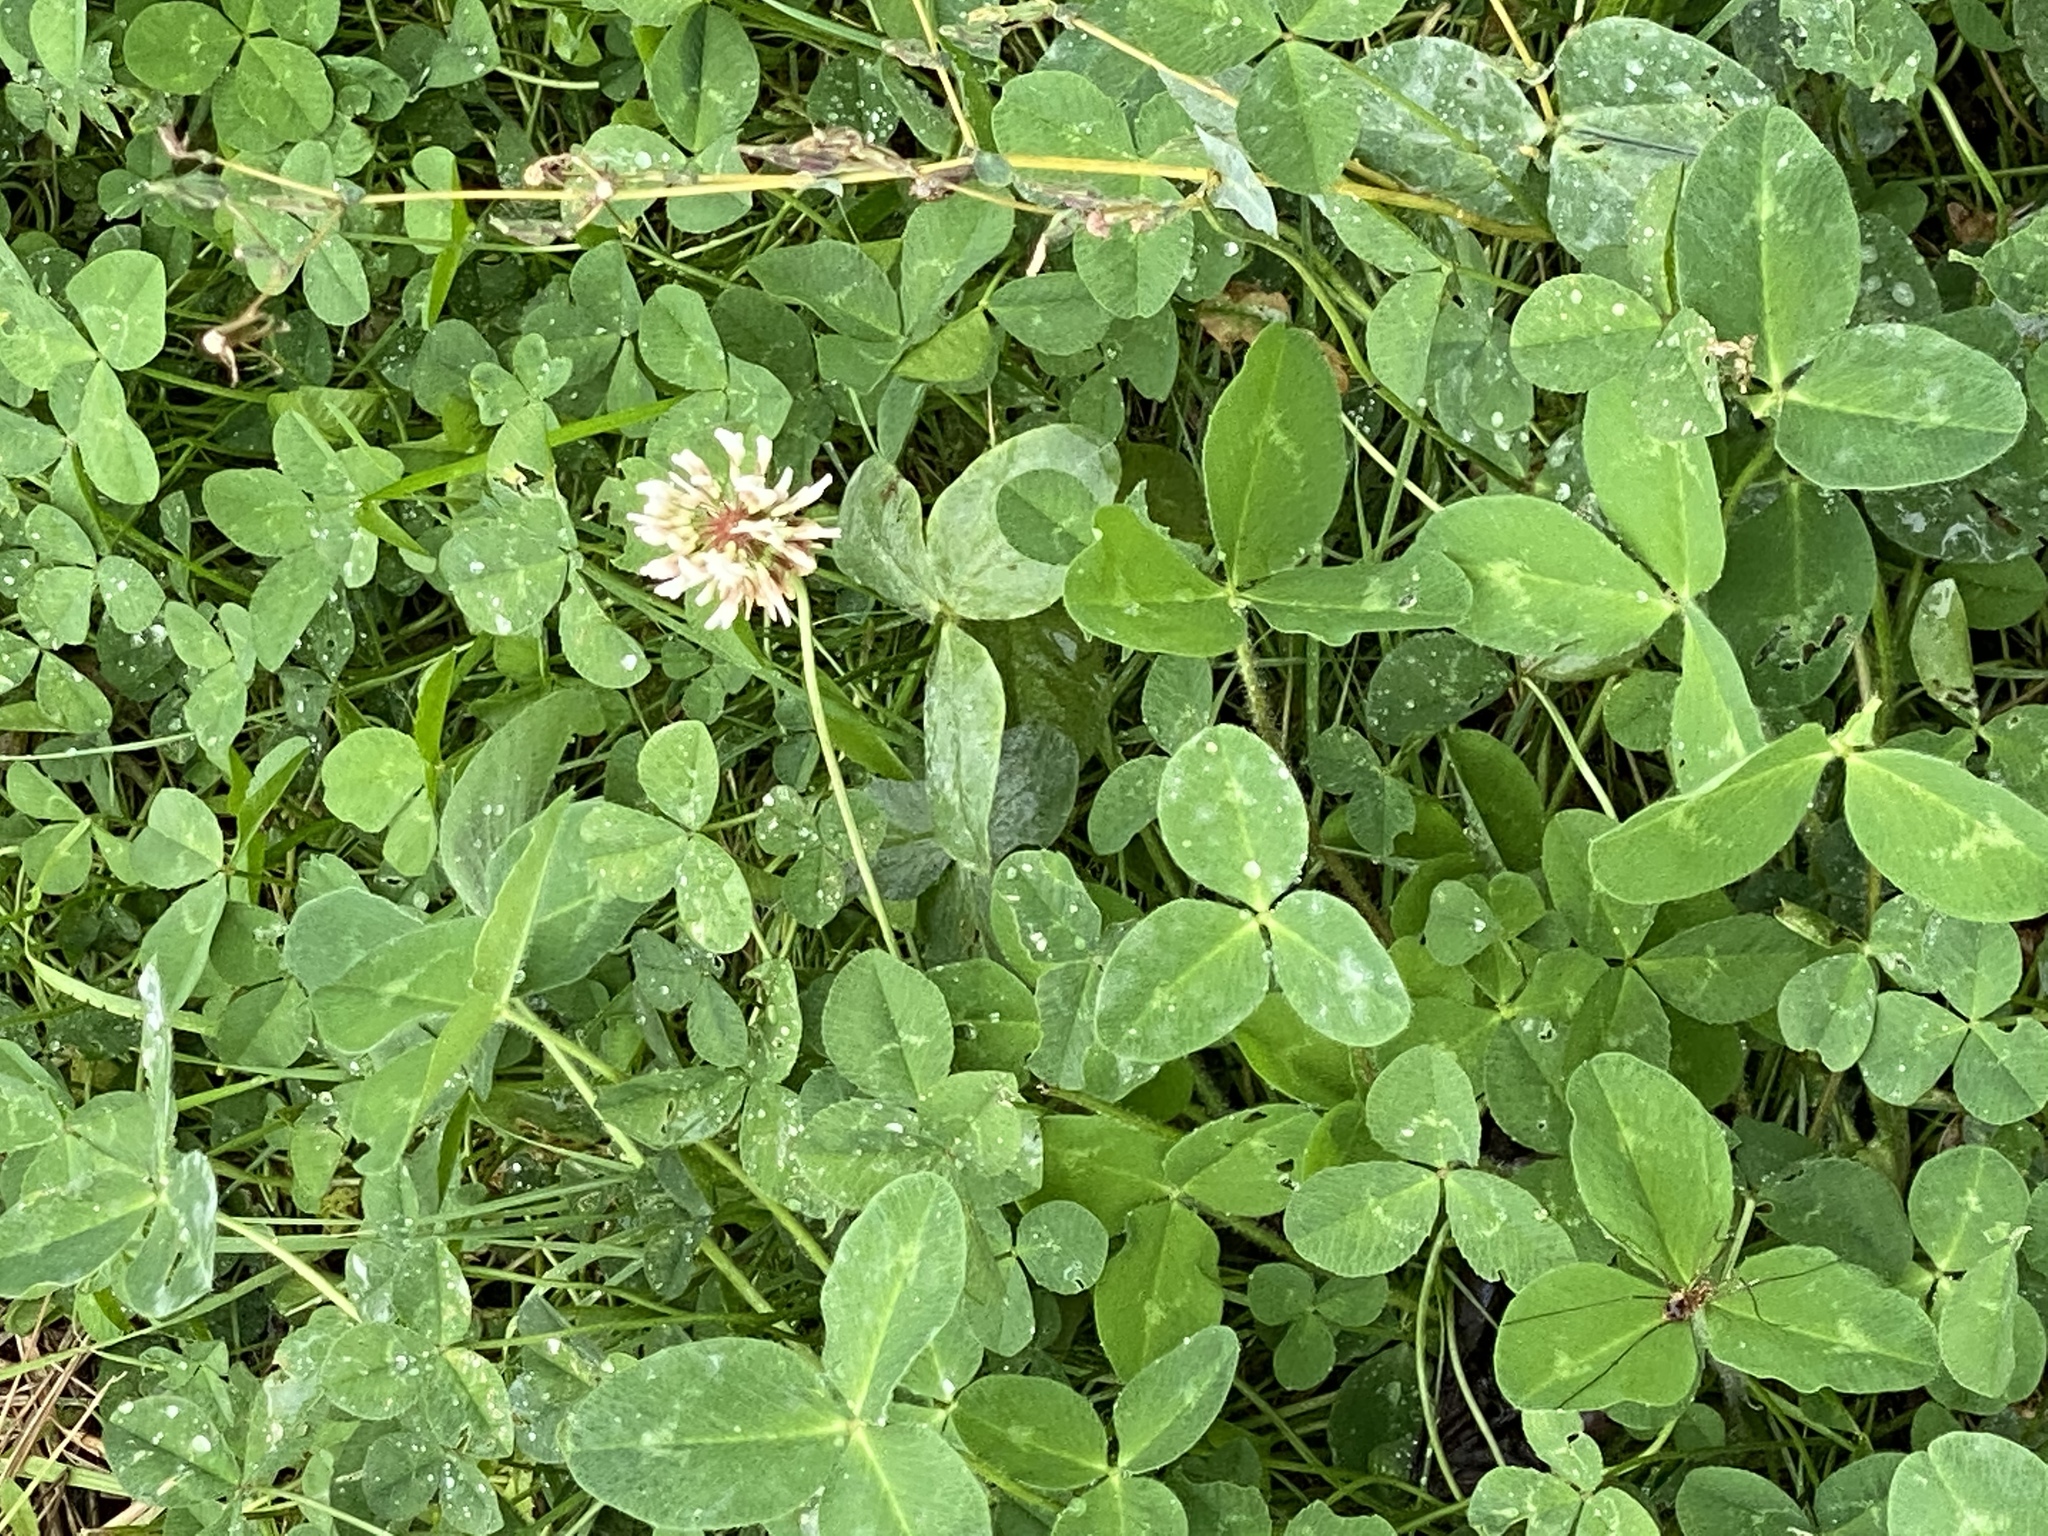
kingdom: Plantae
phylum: Tracheophyta
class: Magnoliopsida
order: Fabales
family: Fabaceae
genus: Trifolium
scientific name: Trifolium repens
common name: White clover
